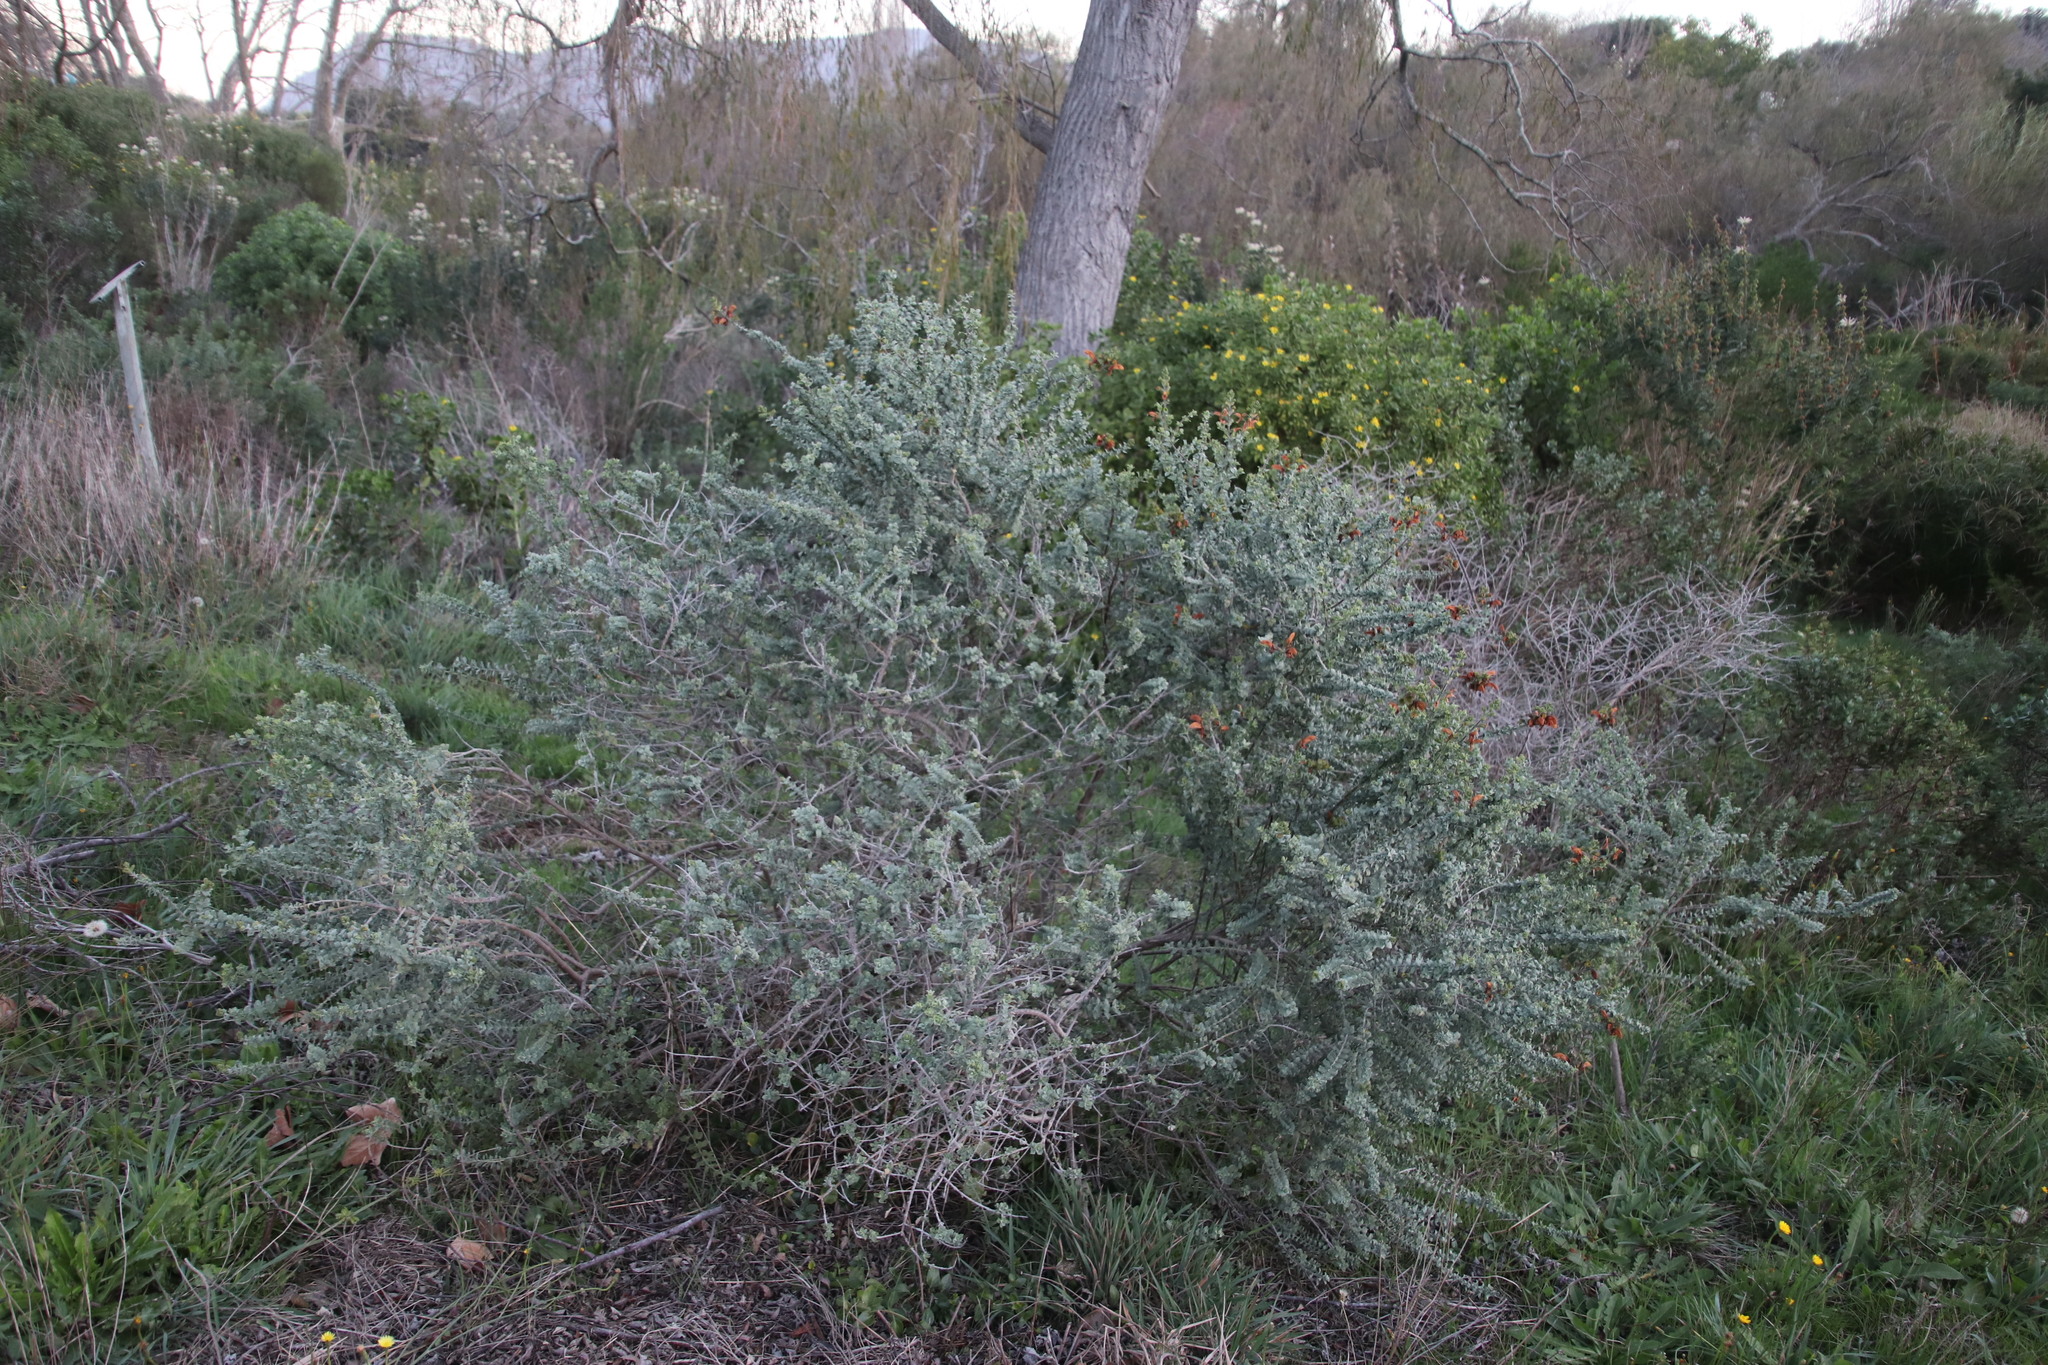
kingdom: Plantae
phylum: Tracheophyta
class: Magnoliopsida
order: Lamiales
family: Lamiaceae
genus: Salvia
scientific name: Salvia aurea
